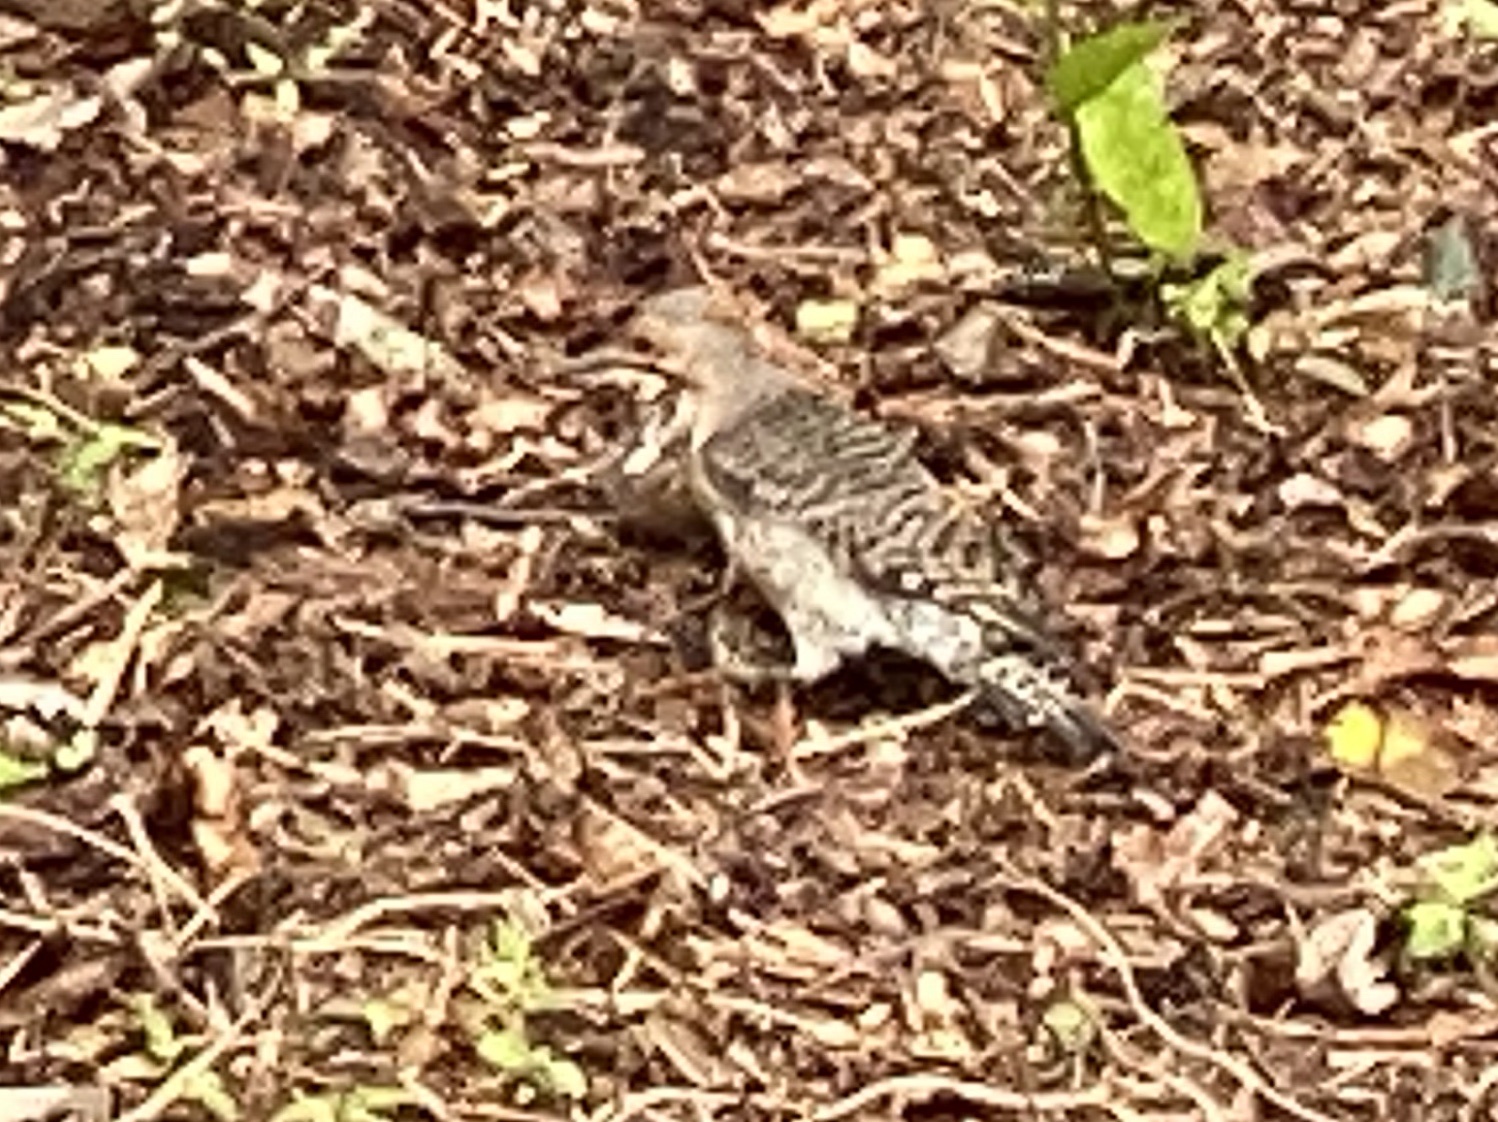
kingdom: Animalia
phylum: Chordata
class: Aves
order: Piciformes
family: Picidae
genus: Colaptes
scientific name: Colaptes auratus
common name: Northern flicker
